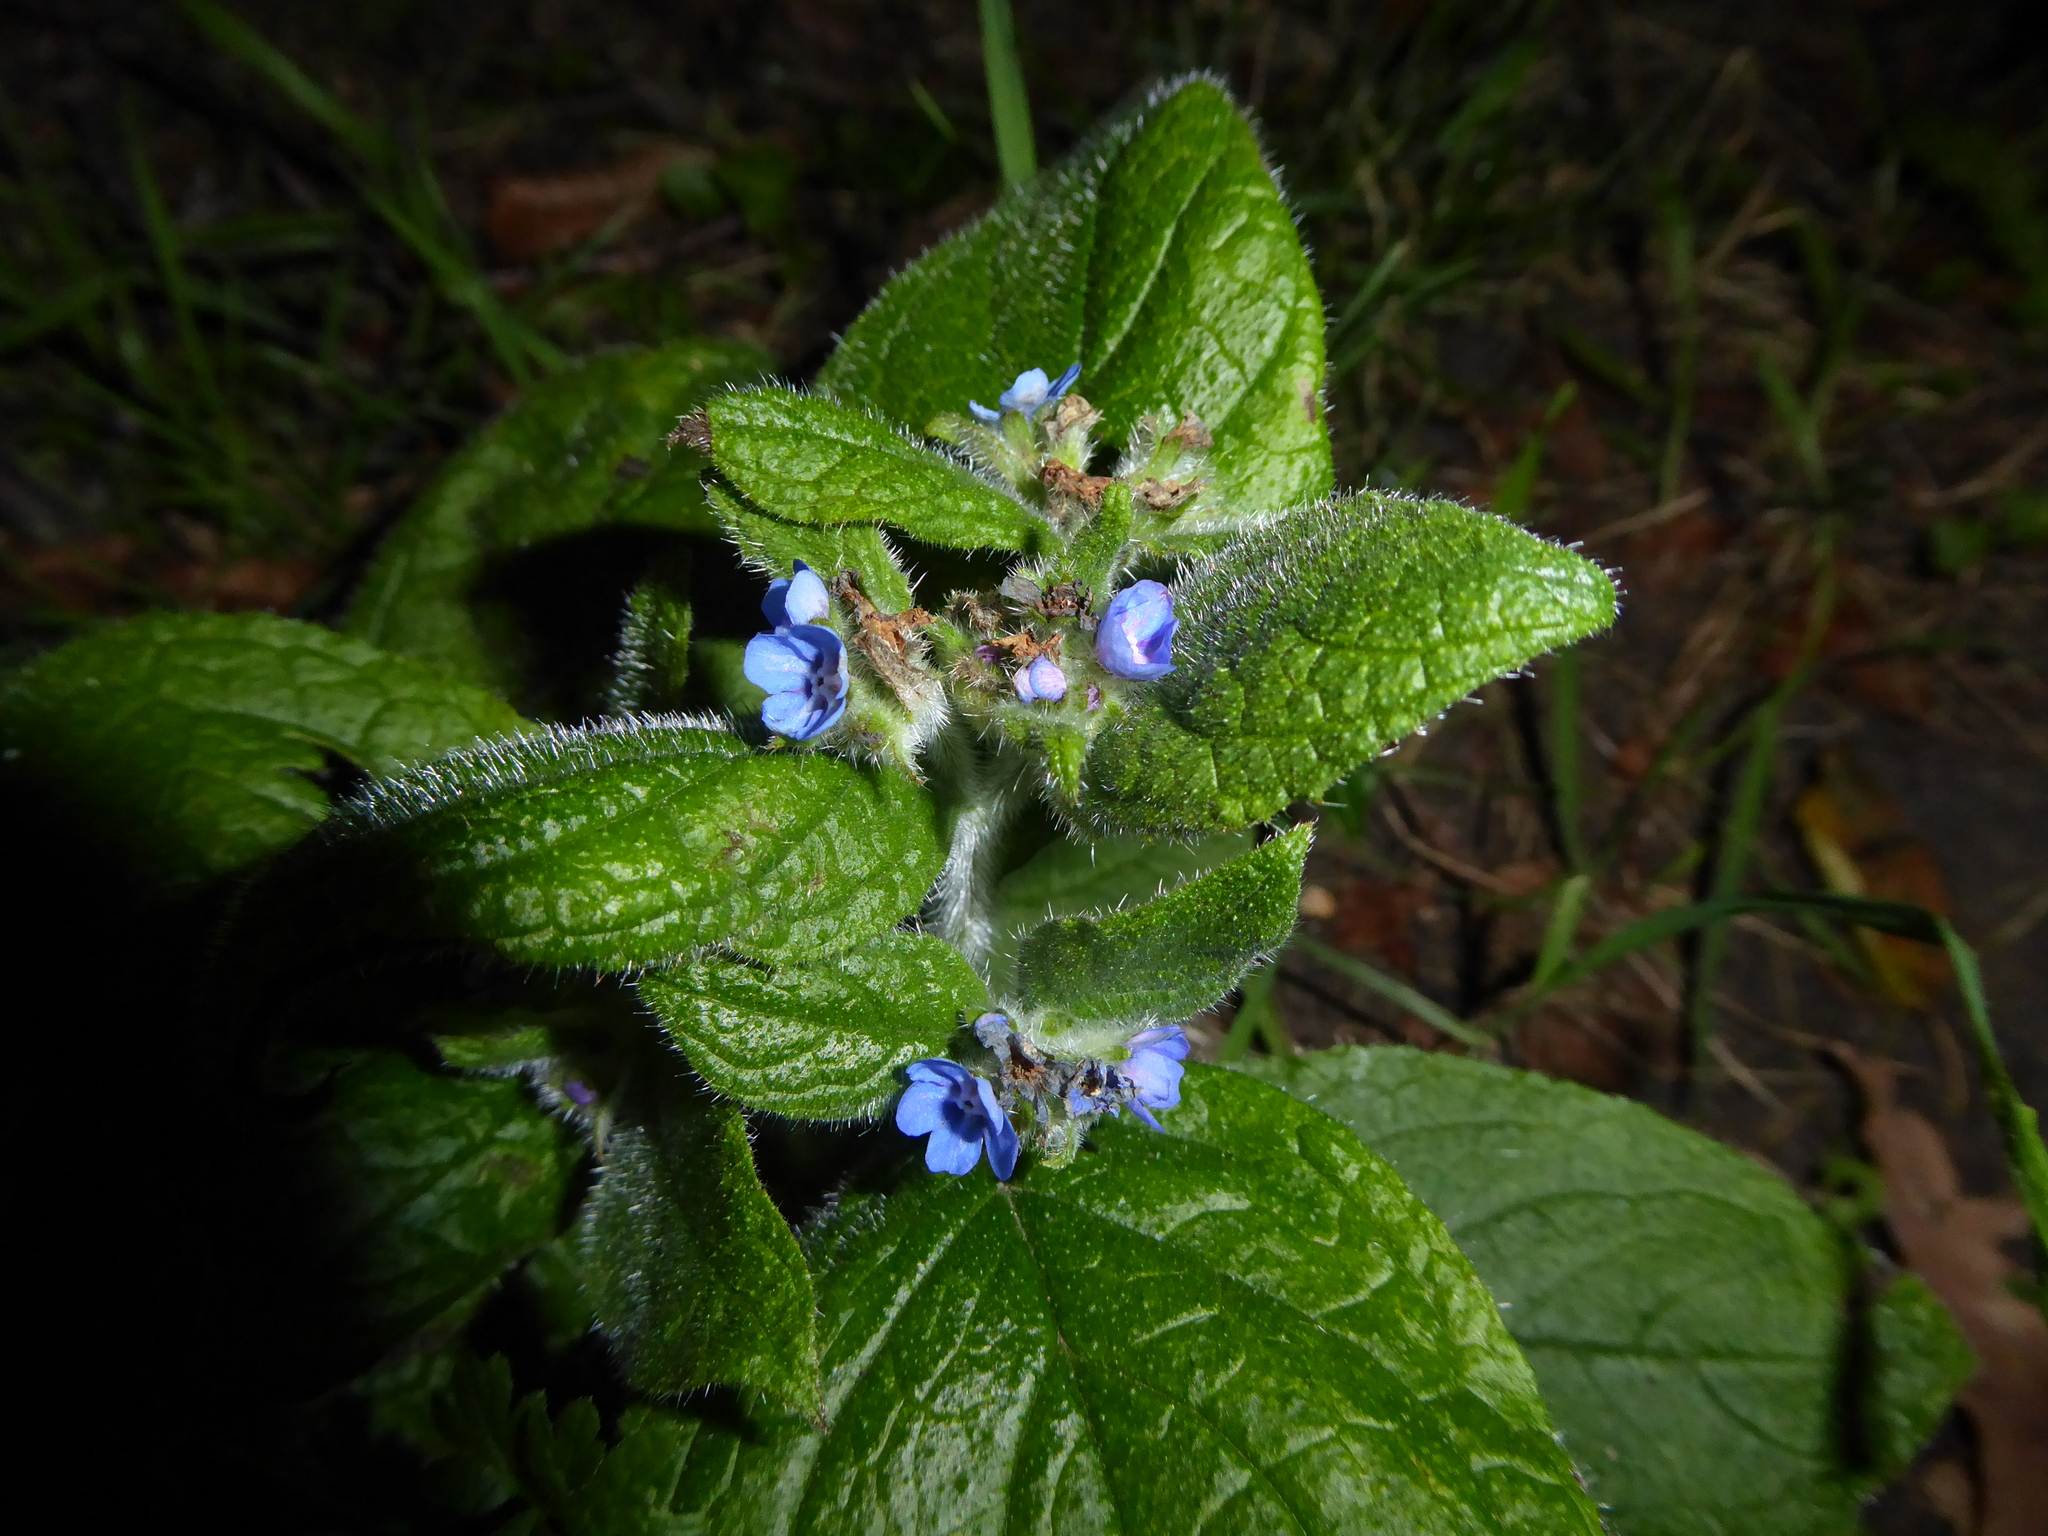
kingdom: Plantae
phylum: Tracheophyta
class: Magnoliopsida
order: Boraginales
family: Boraginaceae
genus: Pentaglottis
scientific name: Pentaglottis sempervirens
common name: Green alkanet
